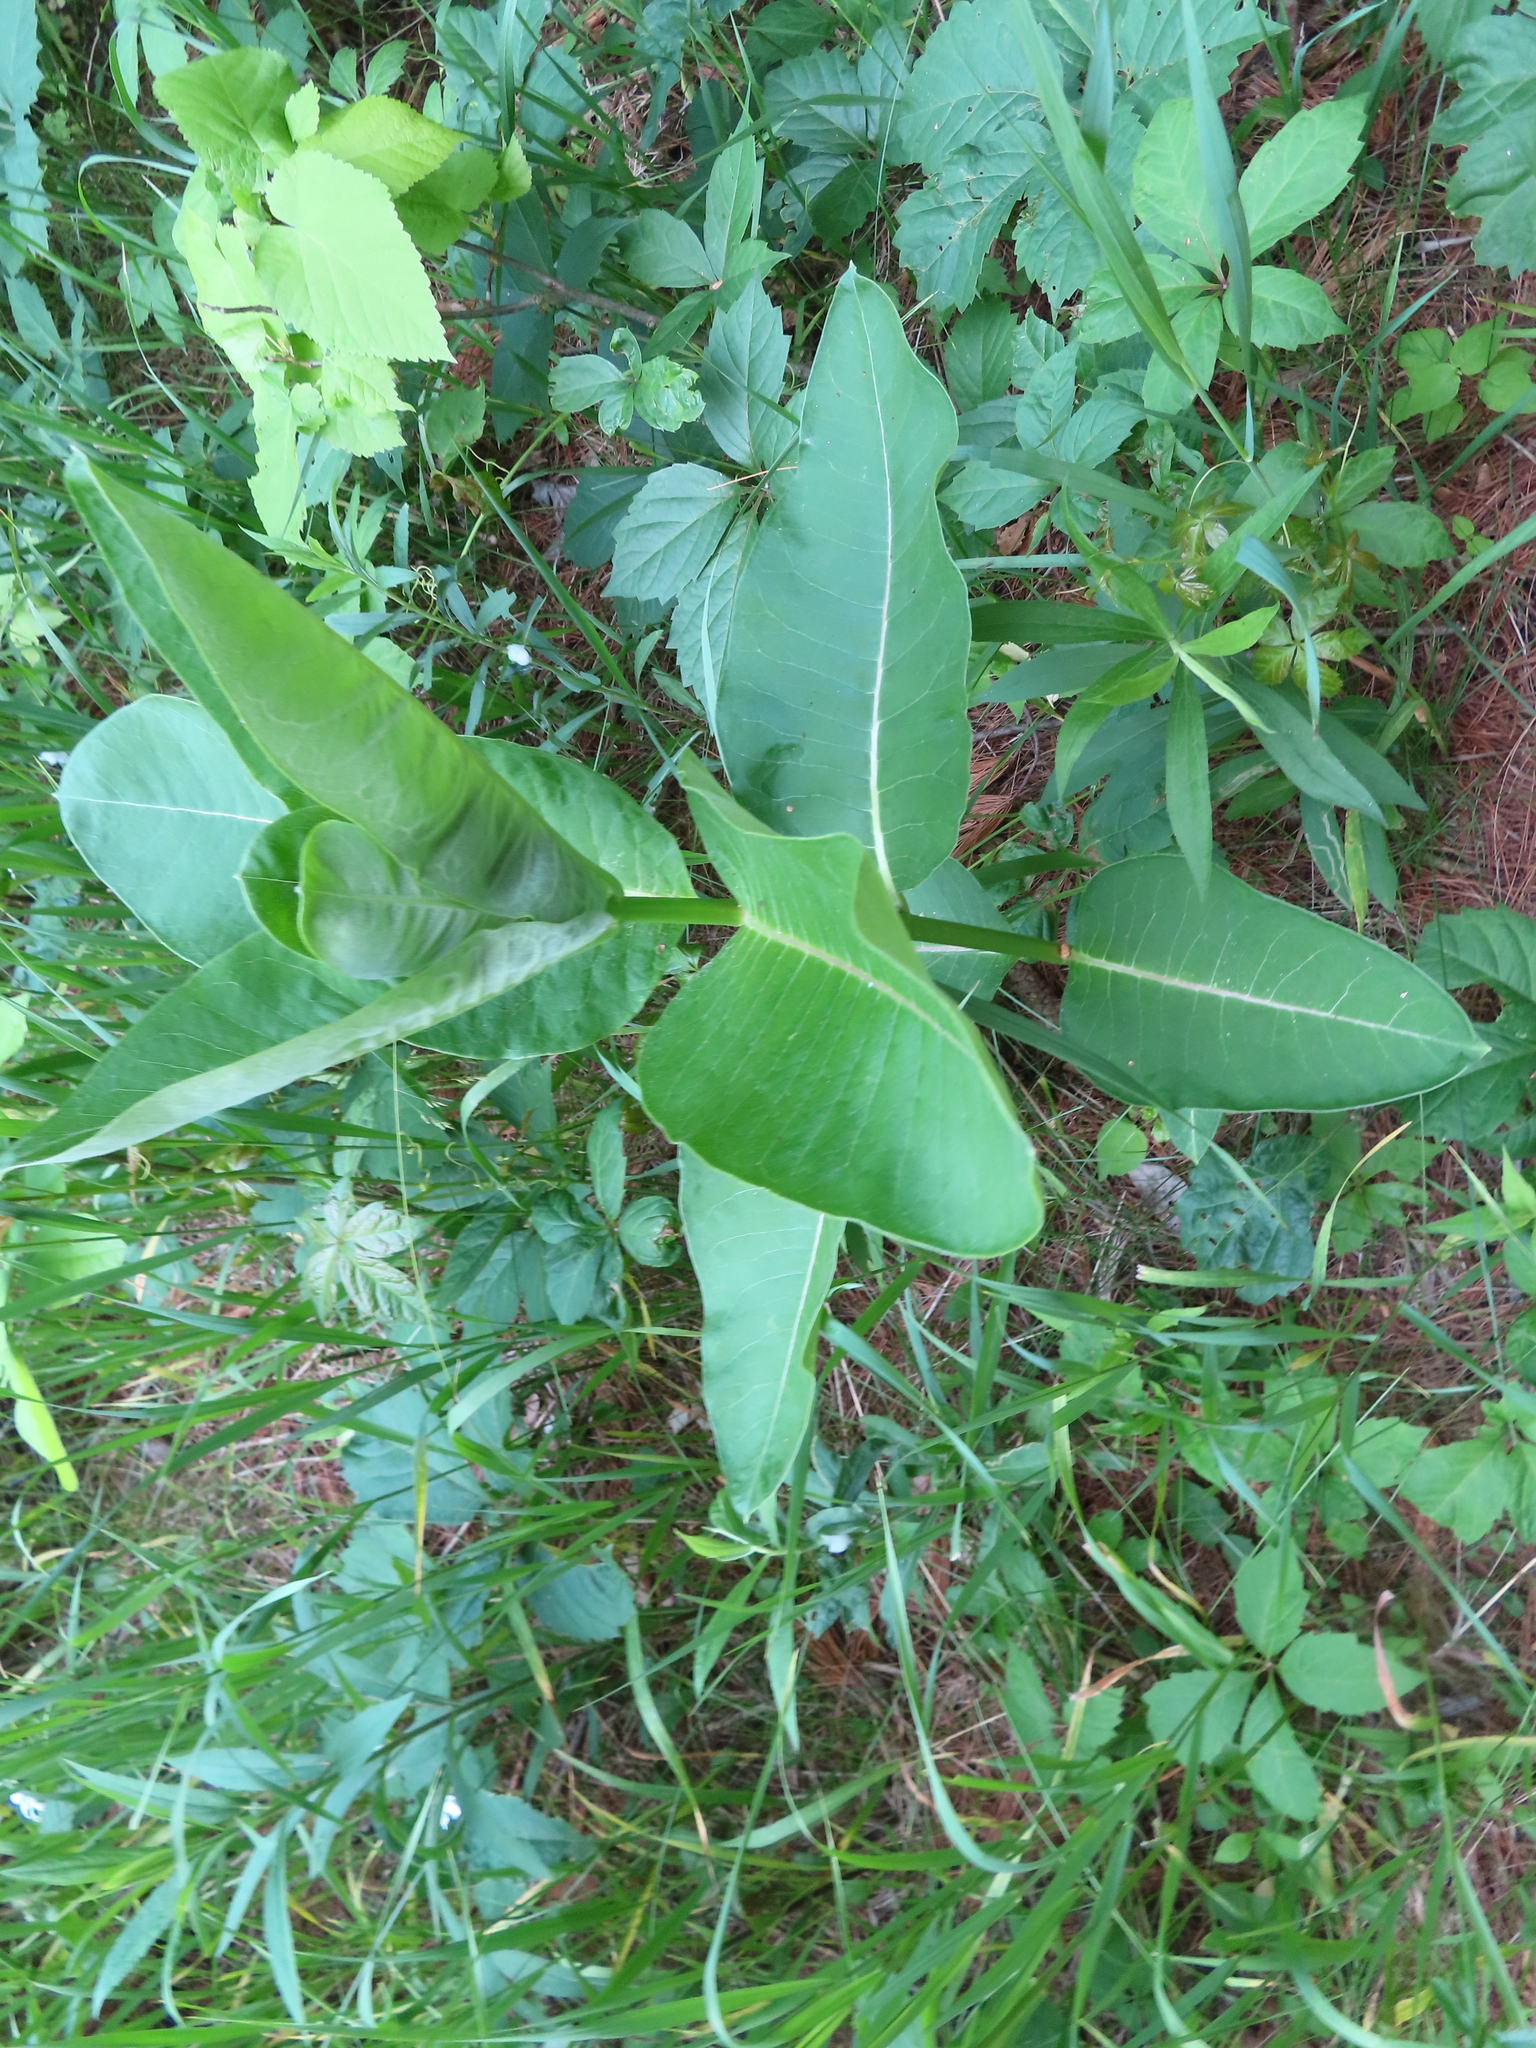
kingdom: Plantae
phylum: Tracheophyta
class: Magnoliopsida
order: Gentianales
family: Apocynaceae
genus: Asclepias
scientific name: Asclepias syriaca
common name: Common milkweed
